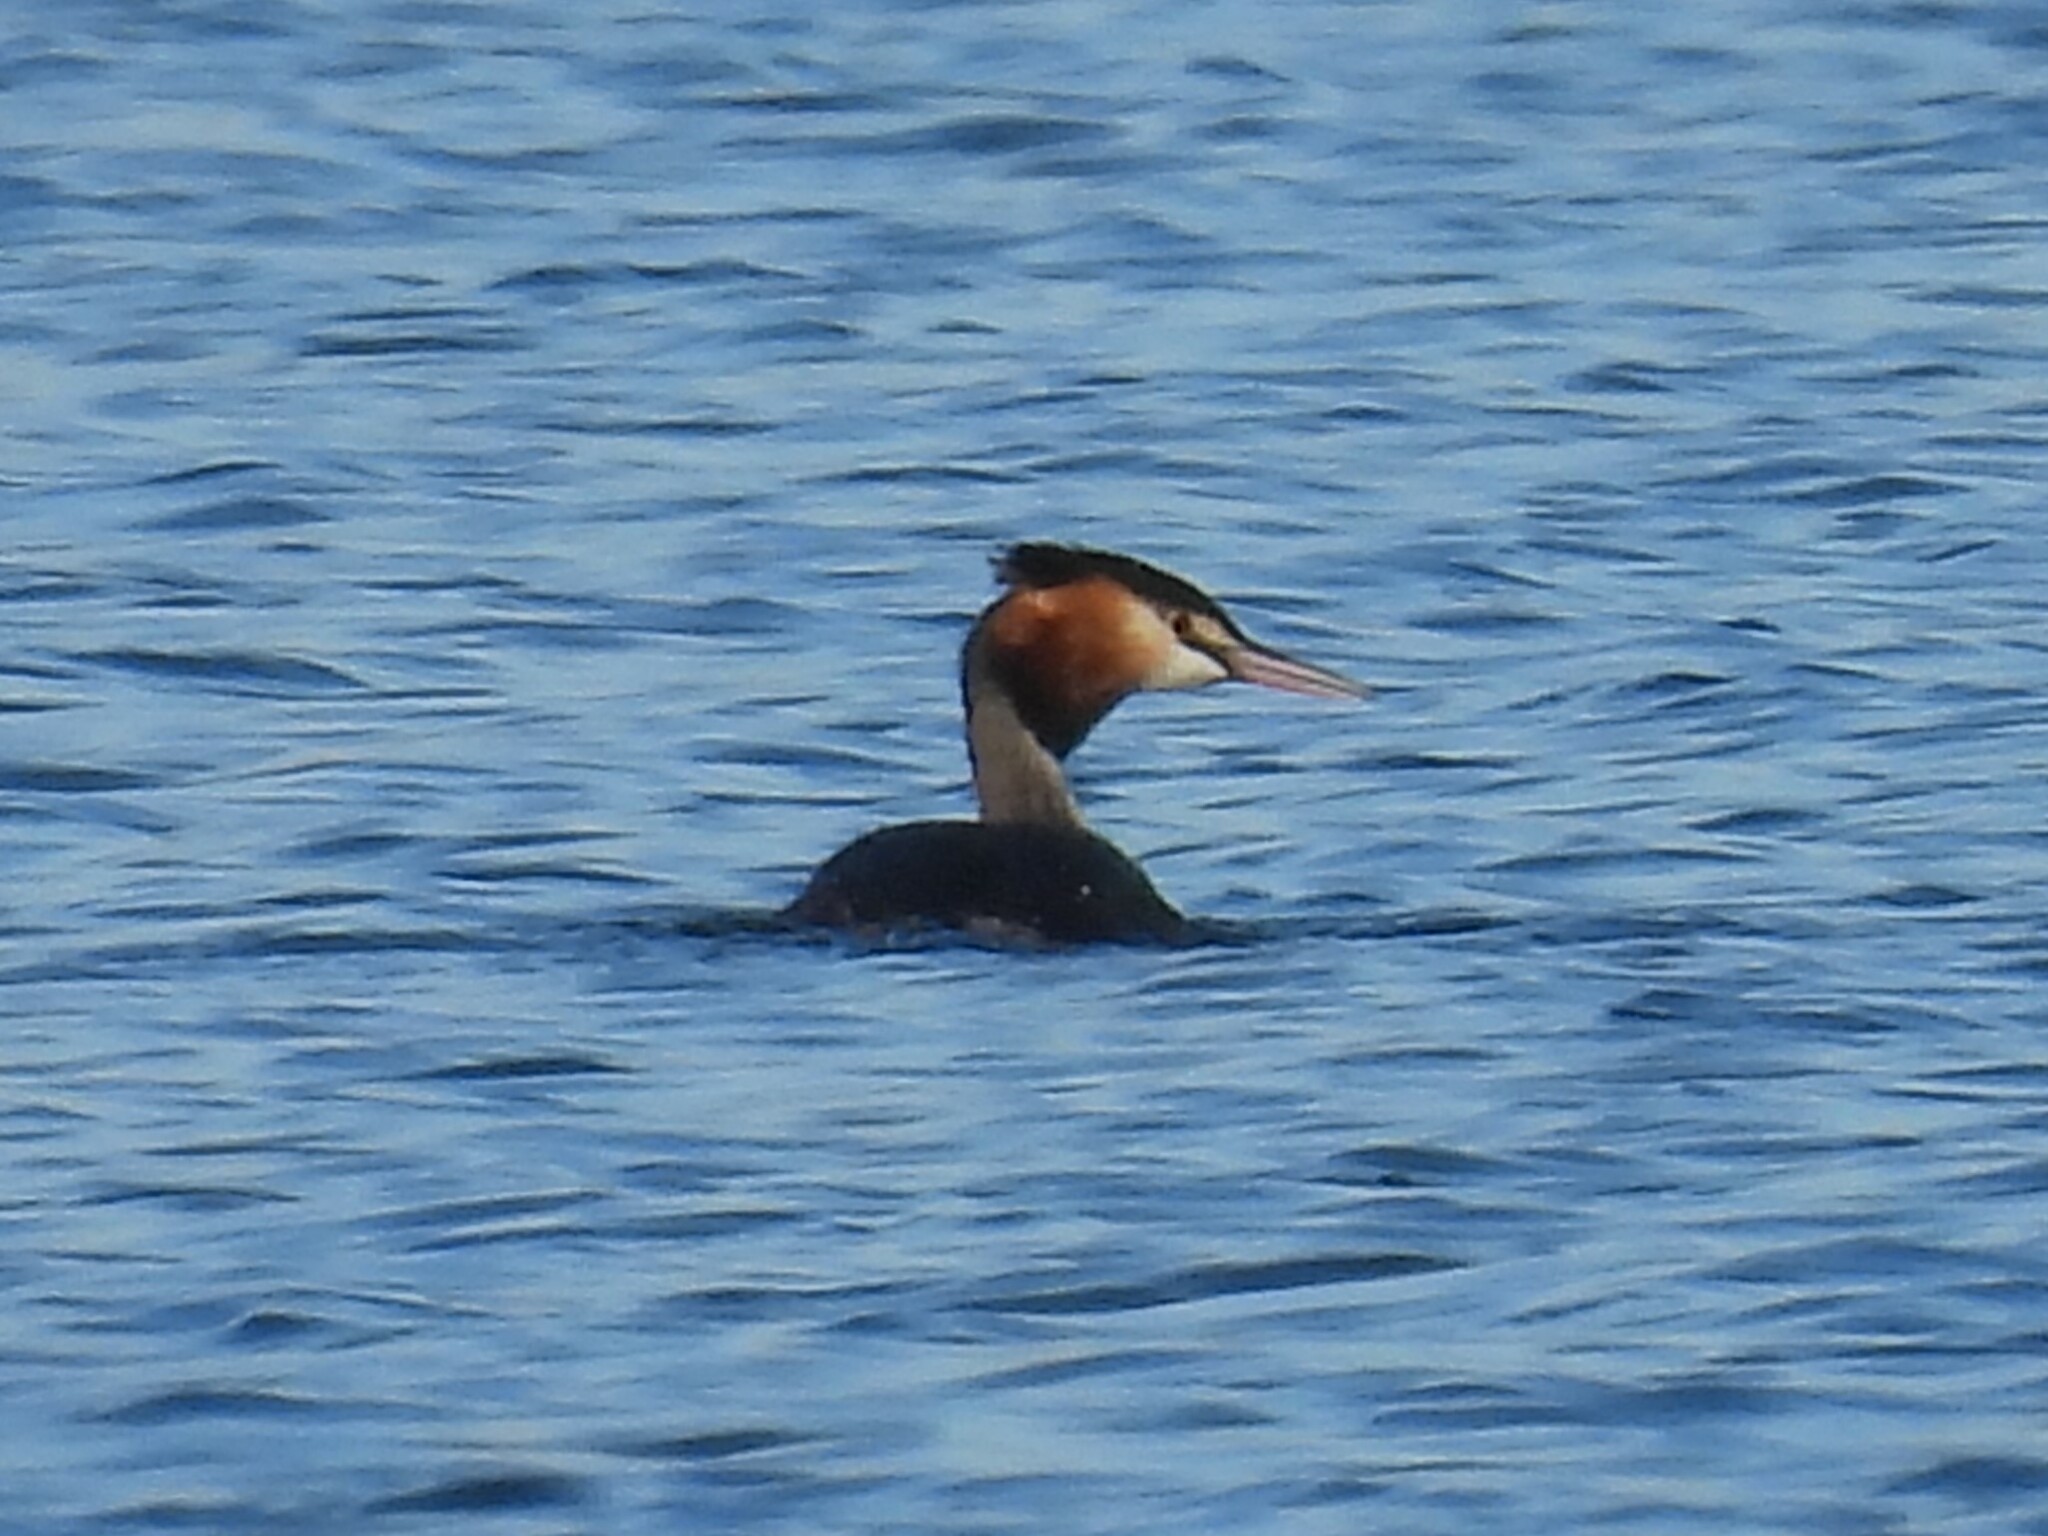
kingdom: Animalia
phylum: Chordata
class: Aves
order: Podicipediformes
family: Podicipedidae
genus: Podiceps
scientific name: Podiceps cristatus
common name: Great crested grebe
